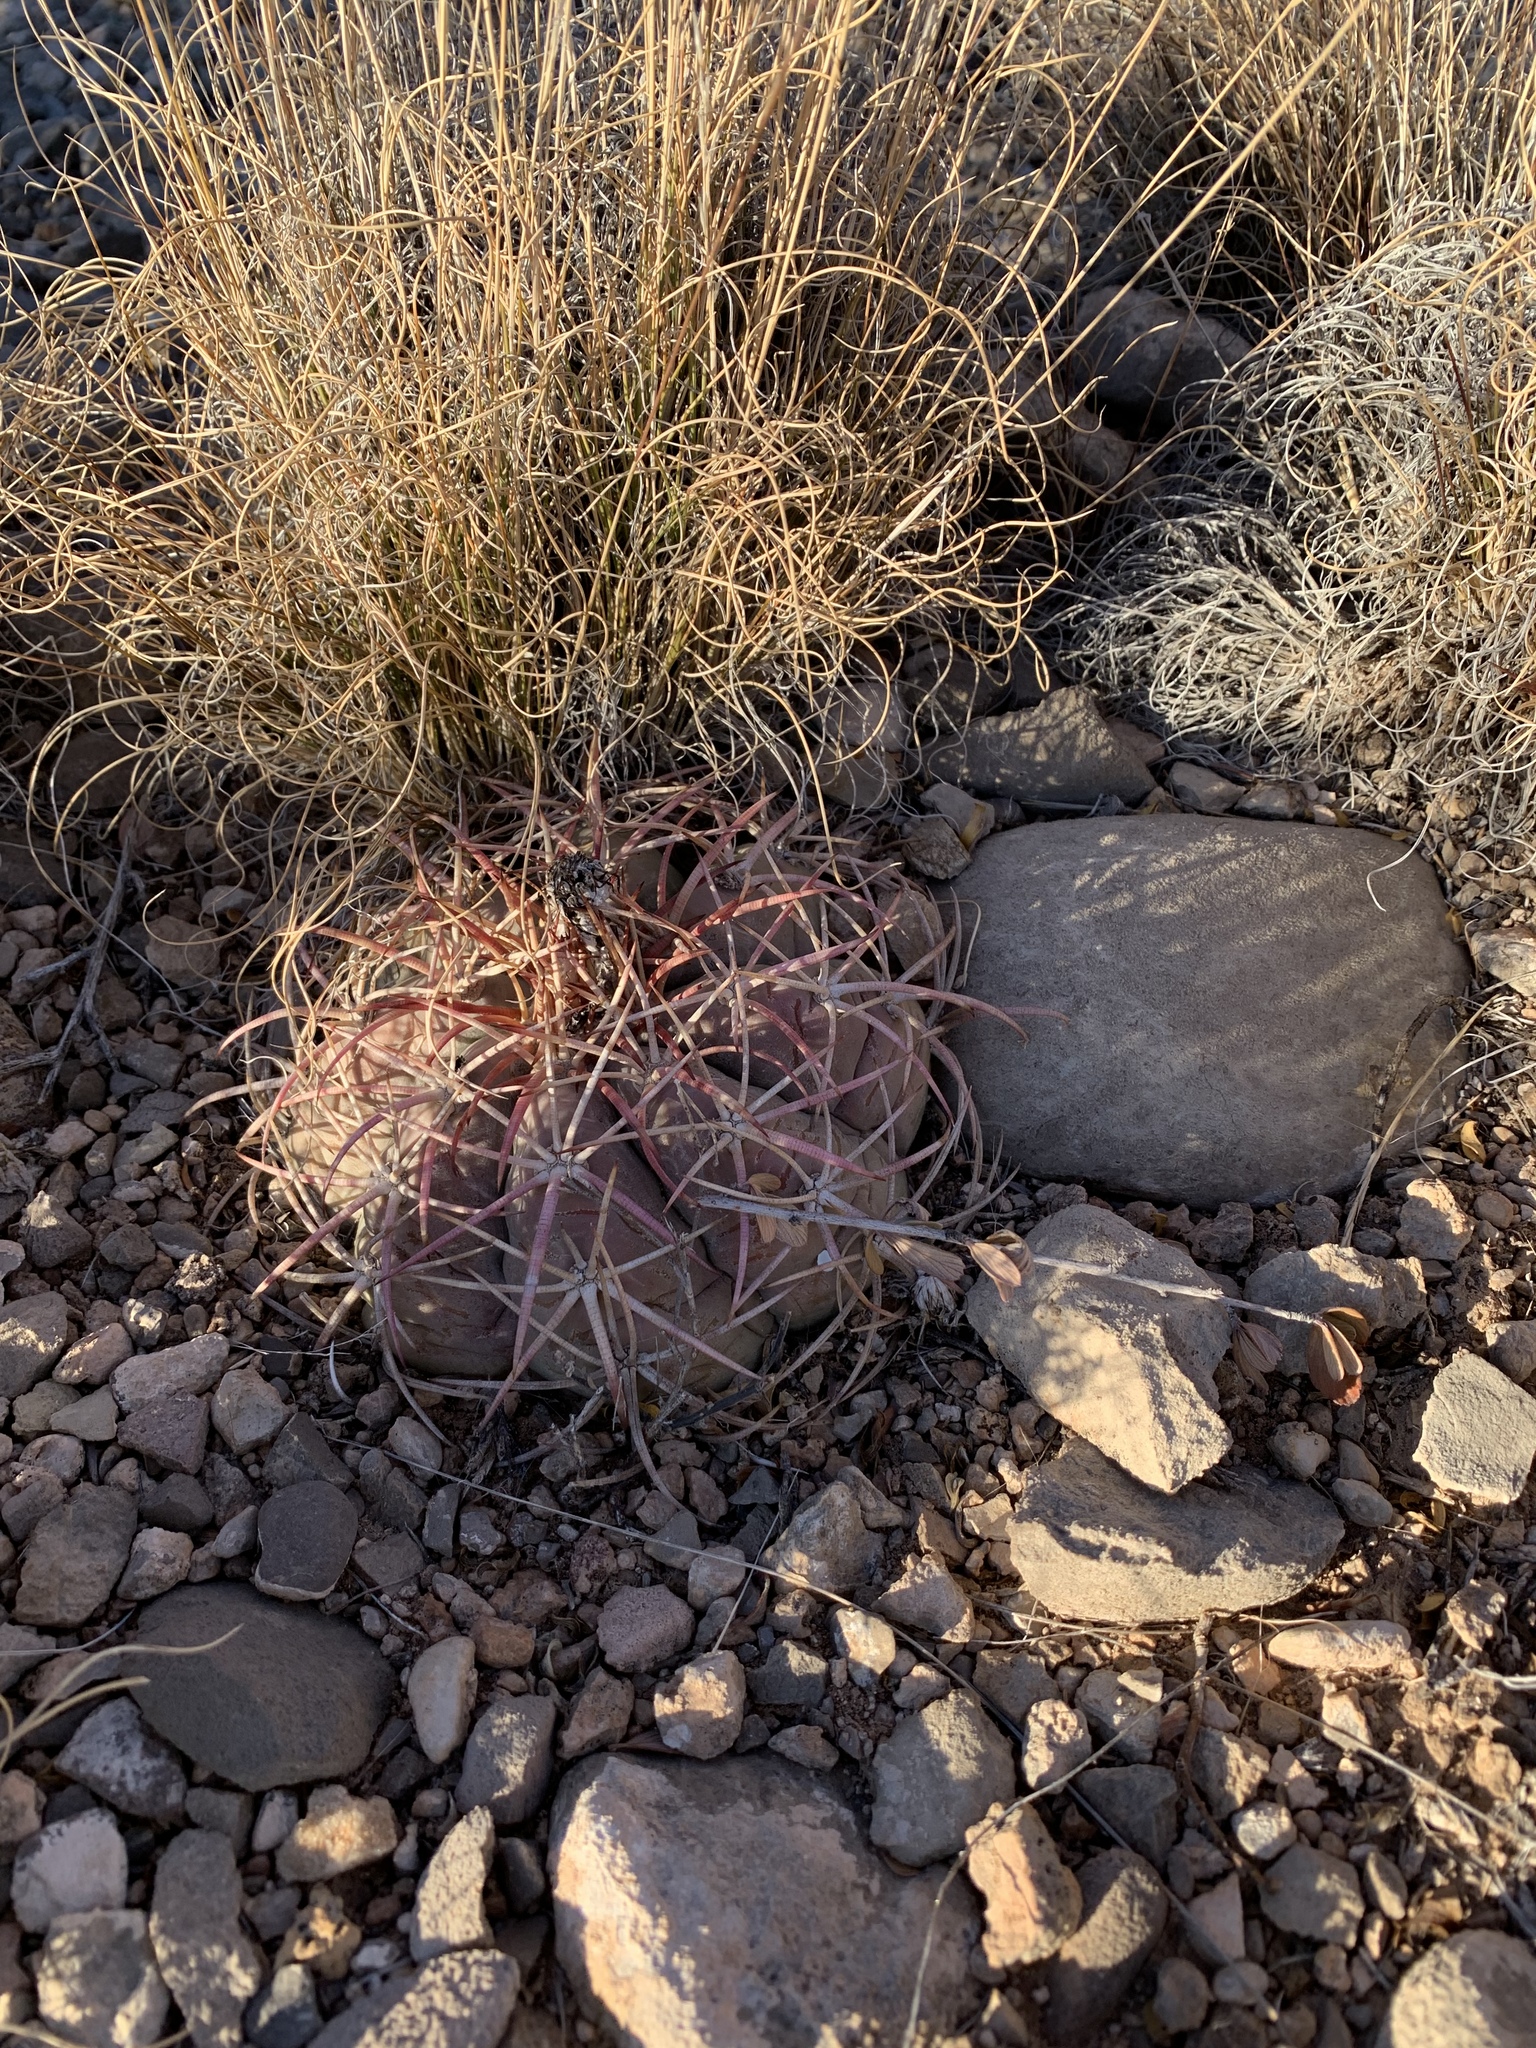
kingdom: Plantae
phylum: Tracheophyta
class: Magnoliopsida
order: Caryophyllales
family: Cactaceae
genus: Echinocactus
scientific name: Echinocactus horizonthalonius
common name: Devilshead
